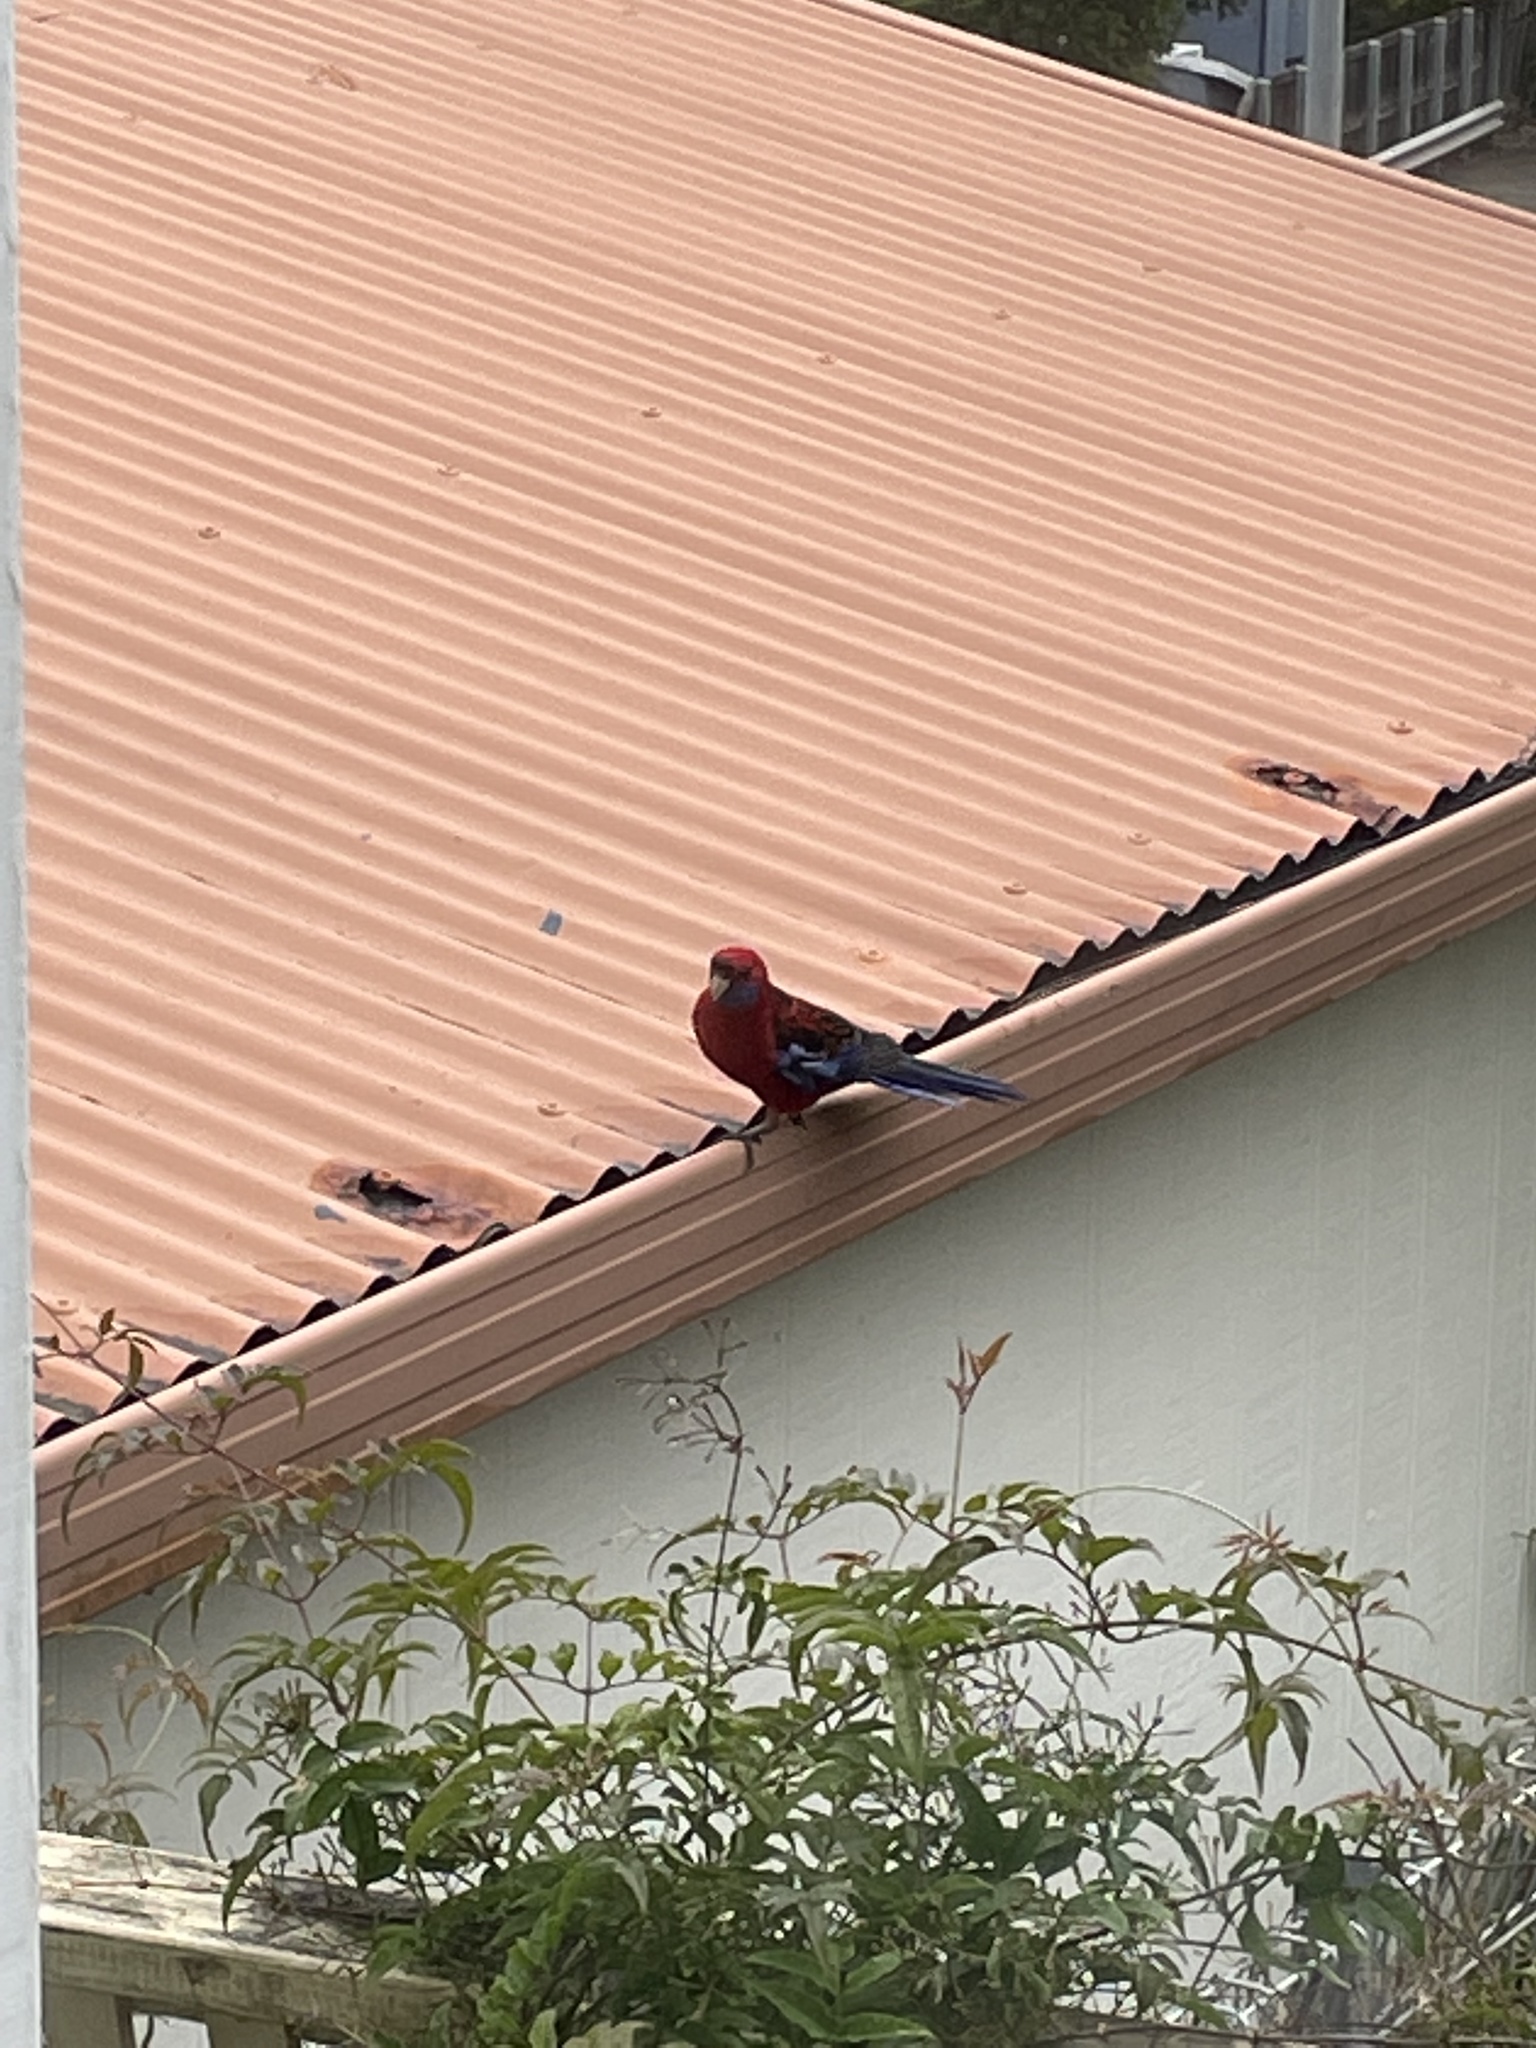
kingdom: Animalia
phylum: Chordata
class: Aves
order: Psittaciformes
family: Psittacidae
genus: Platycercus
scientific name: Platycercus elegans
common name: Crimson rosella
